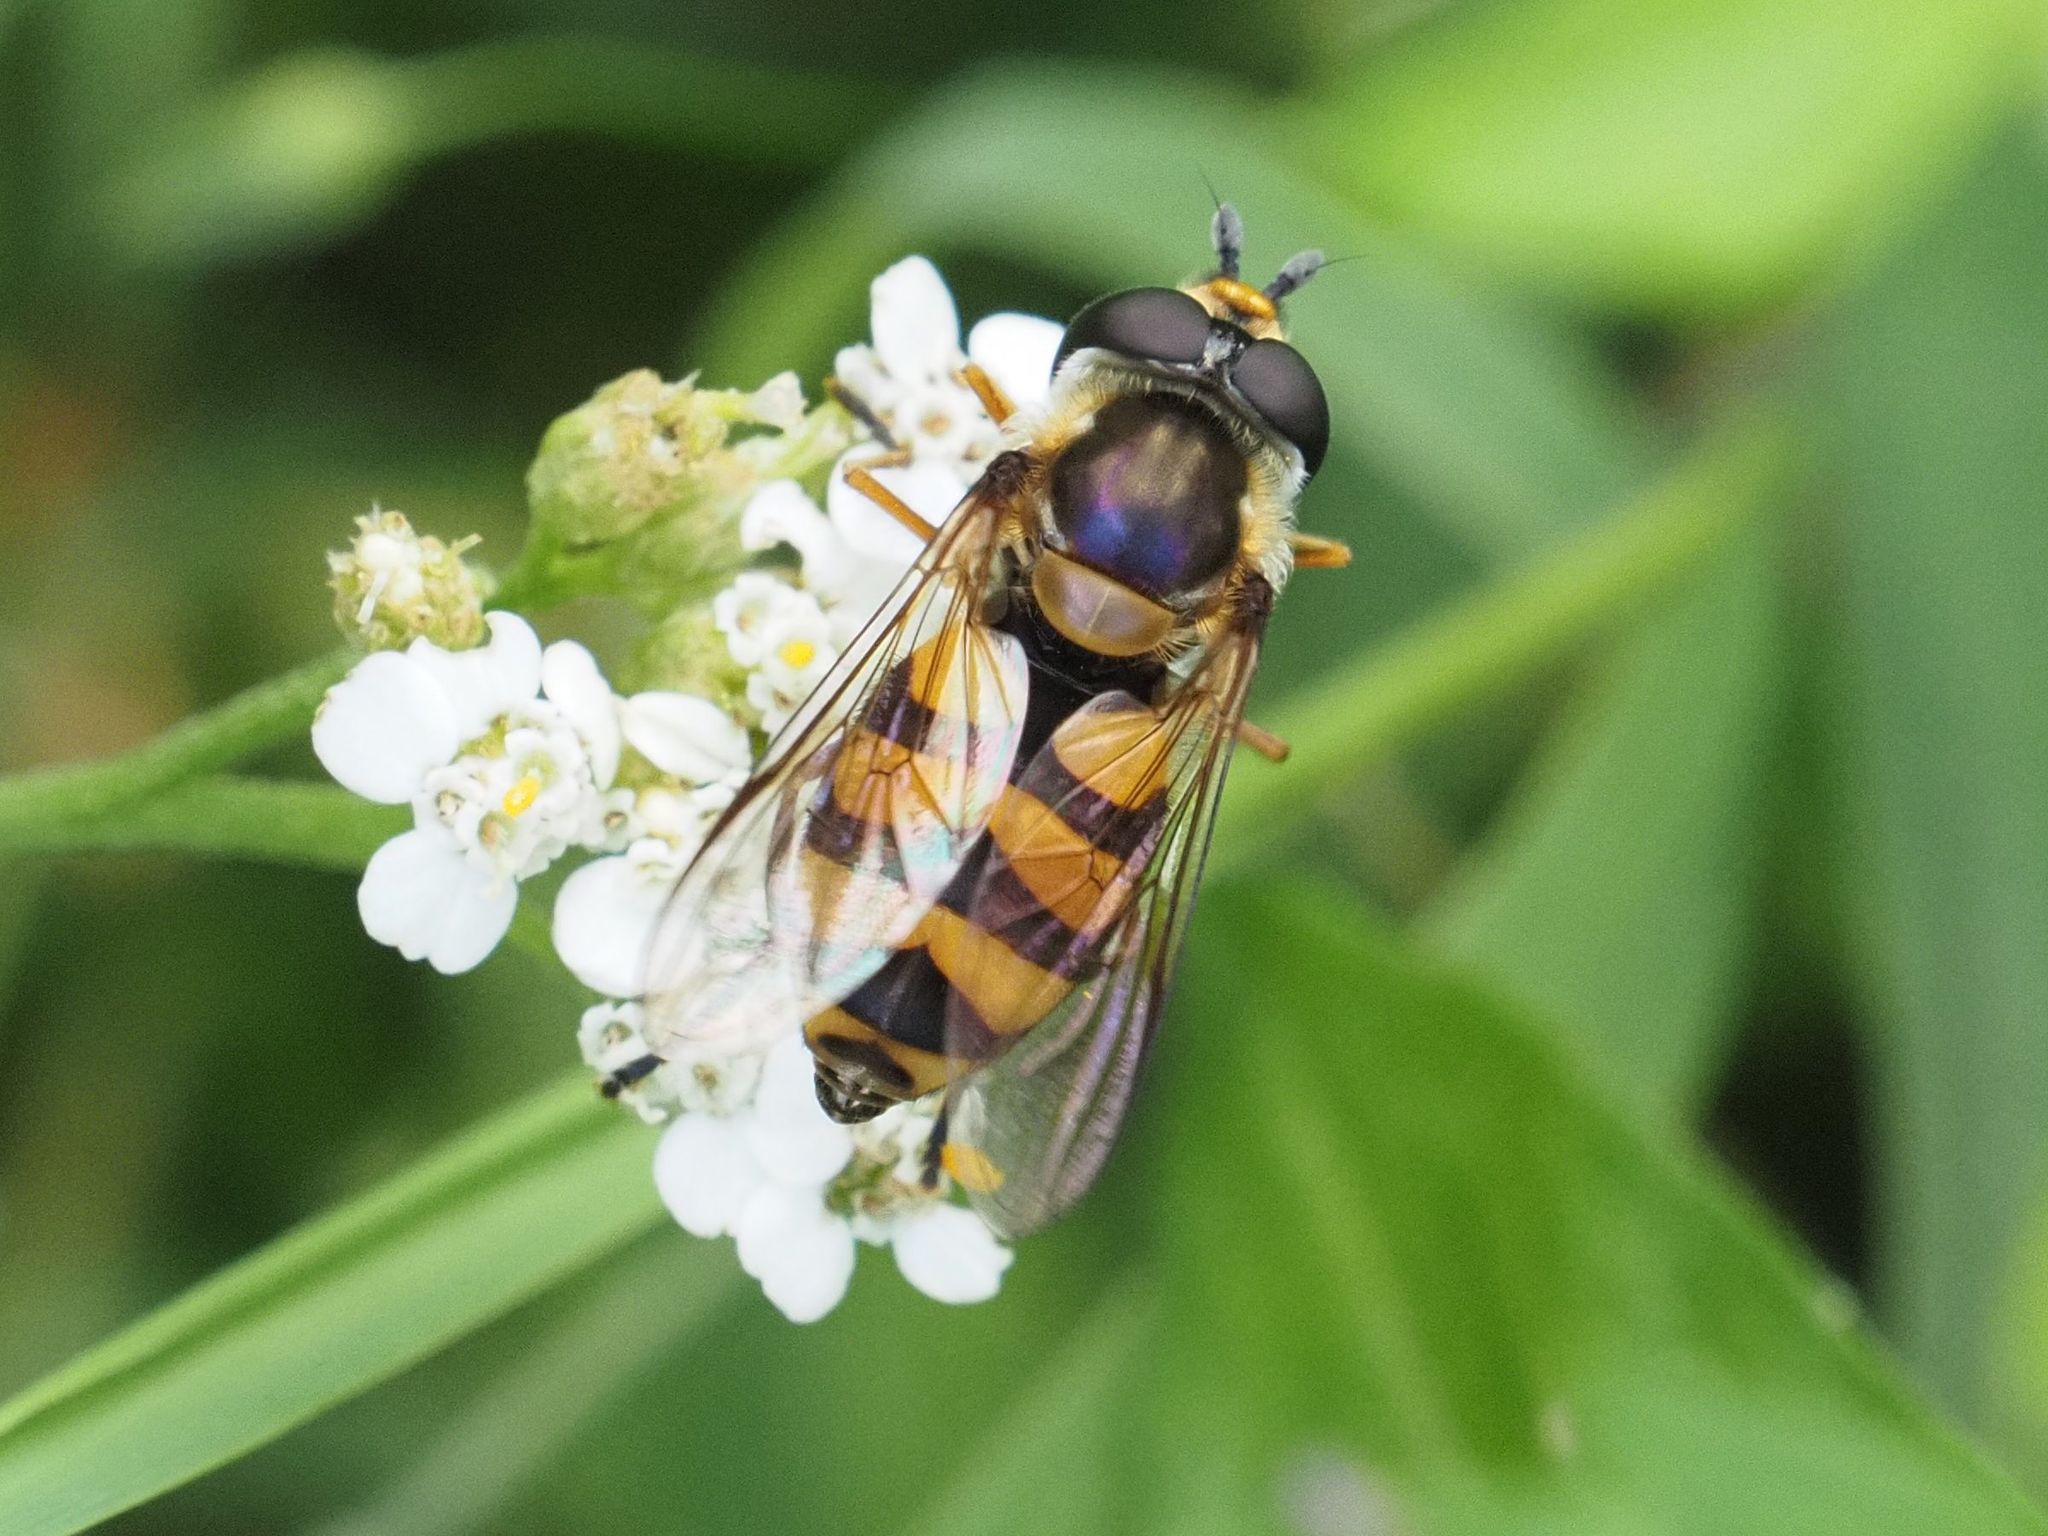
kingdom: Animalia
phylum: Arthropoda
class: Insecta
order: Diptera
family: Syrphidae
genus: Didea
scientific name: Didea fasciata
